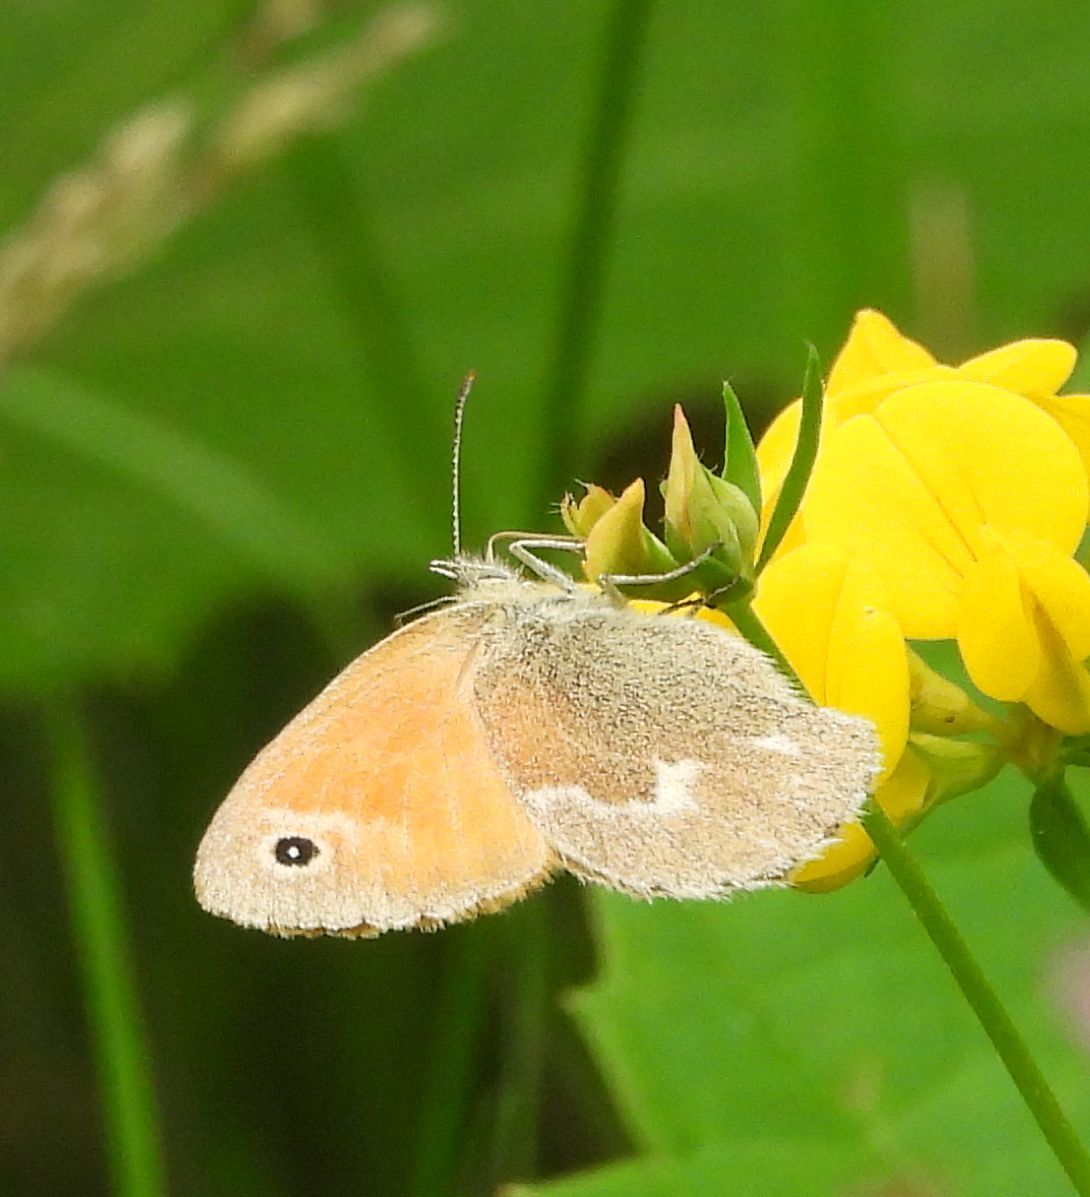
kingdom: Animalia
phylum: Arthropoda
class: Insecta
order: Lepidoptera
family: Nymphalidae
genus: Coenonympha
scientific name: Coenonympha california
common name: Common ringlet
